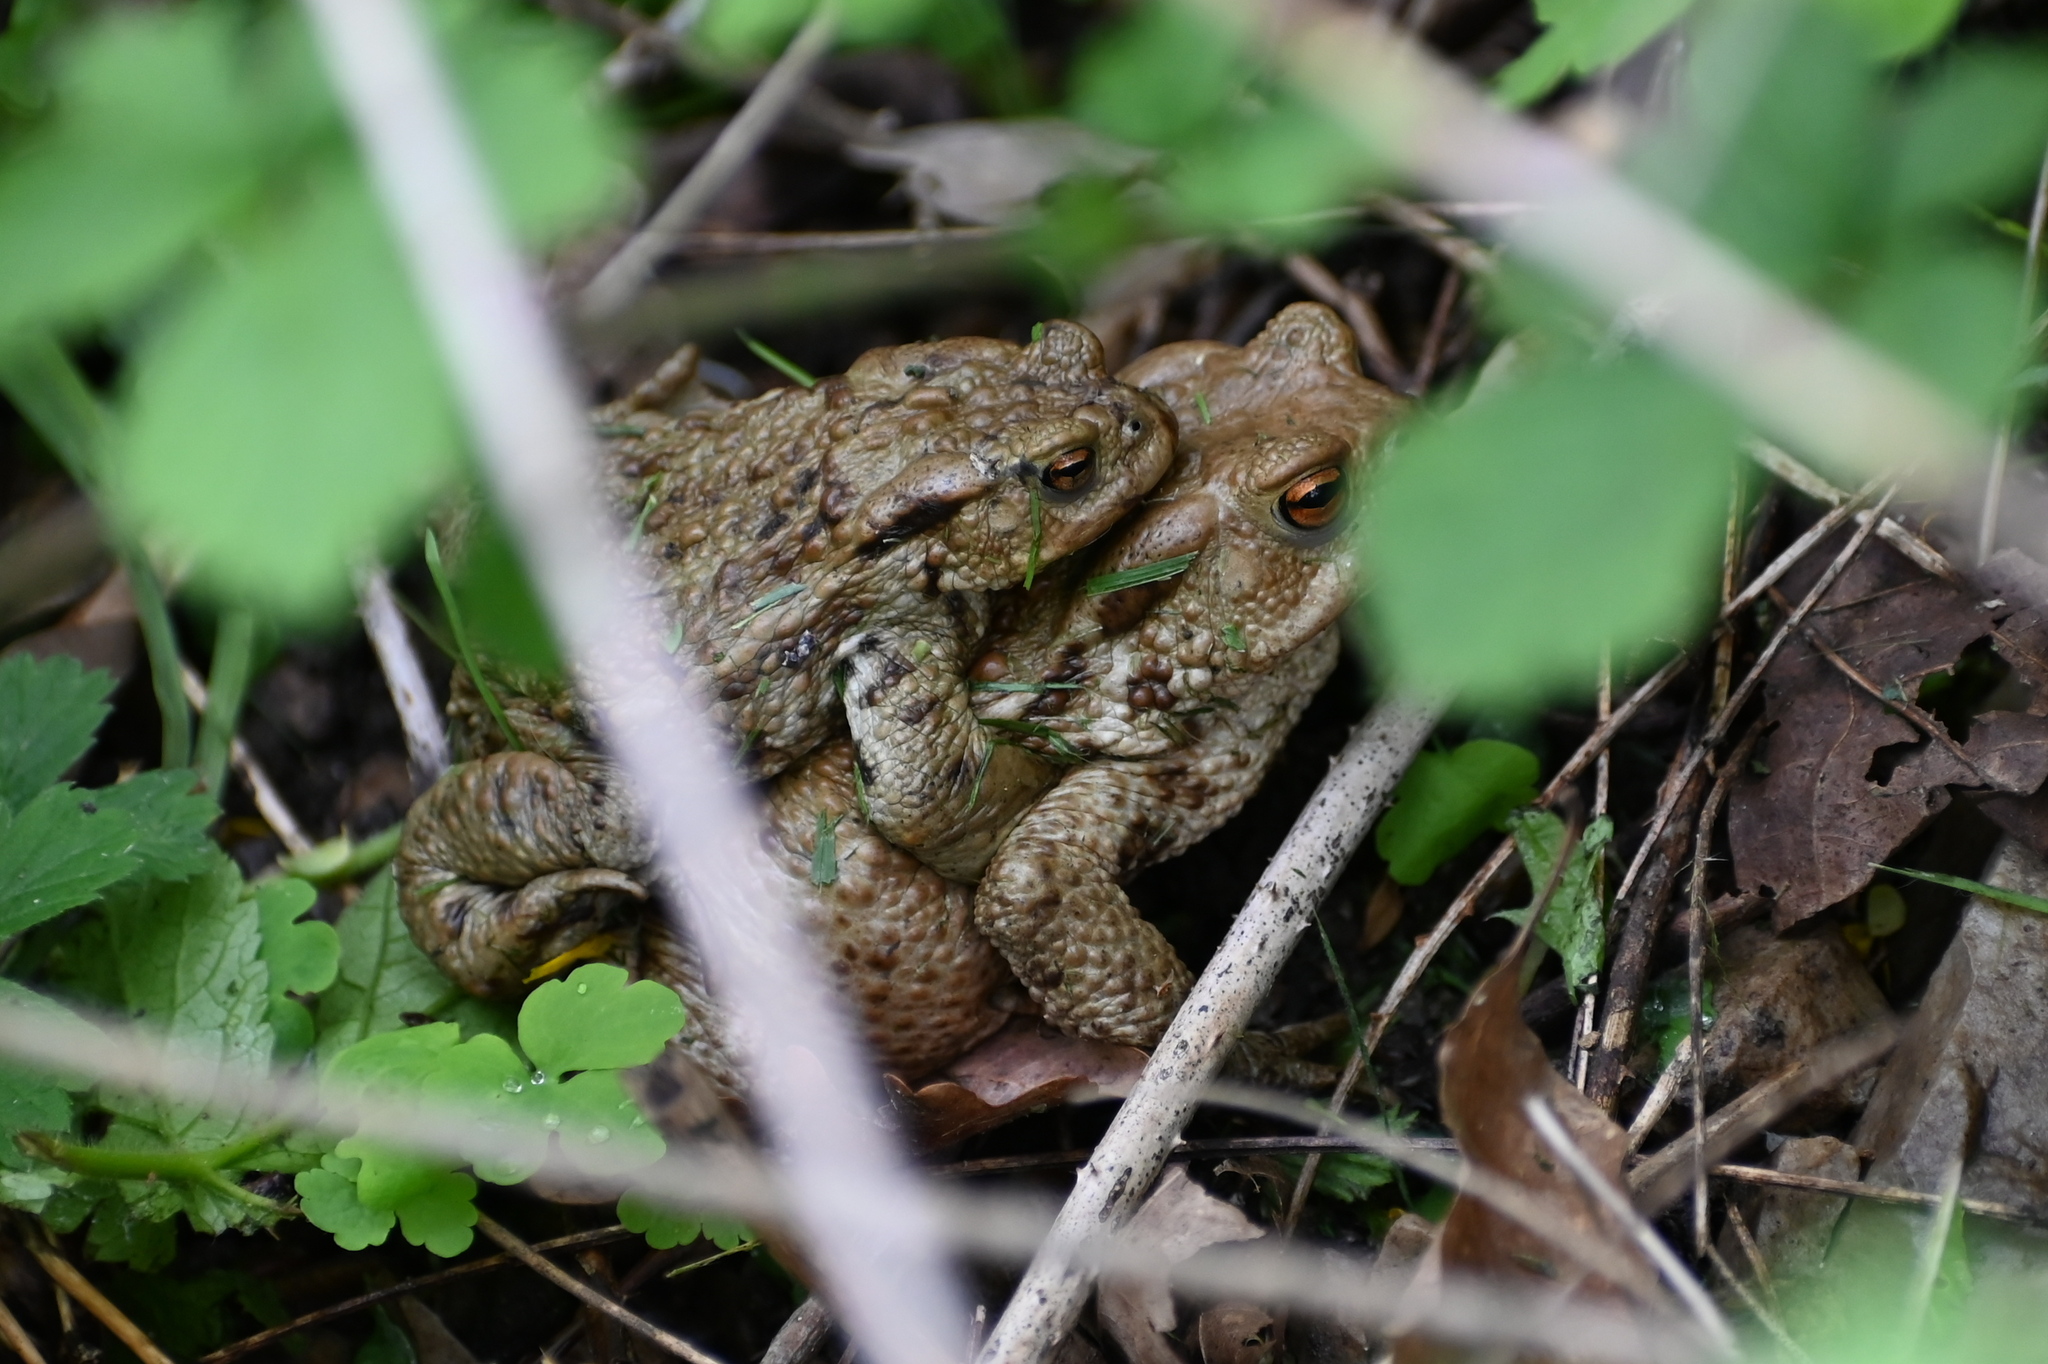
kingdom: Animalia
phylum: Chordata
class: Amphibia
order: Anura
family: Bufonidae
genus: Bufo
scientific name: Bufo bufo
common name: Common toad
